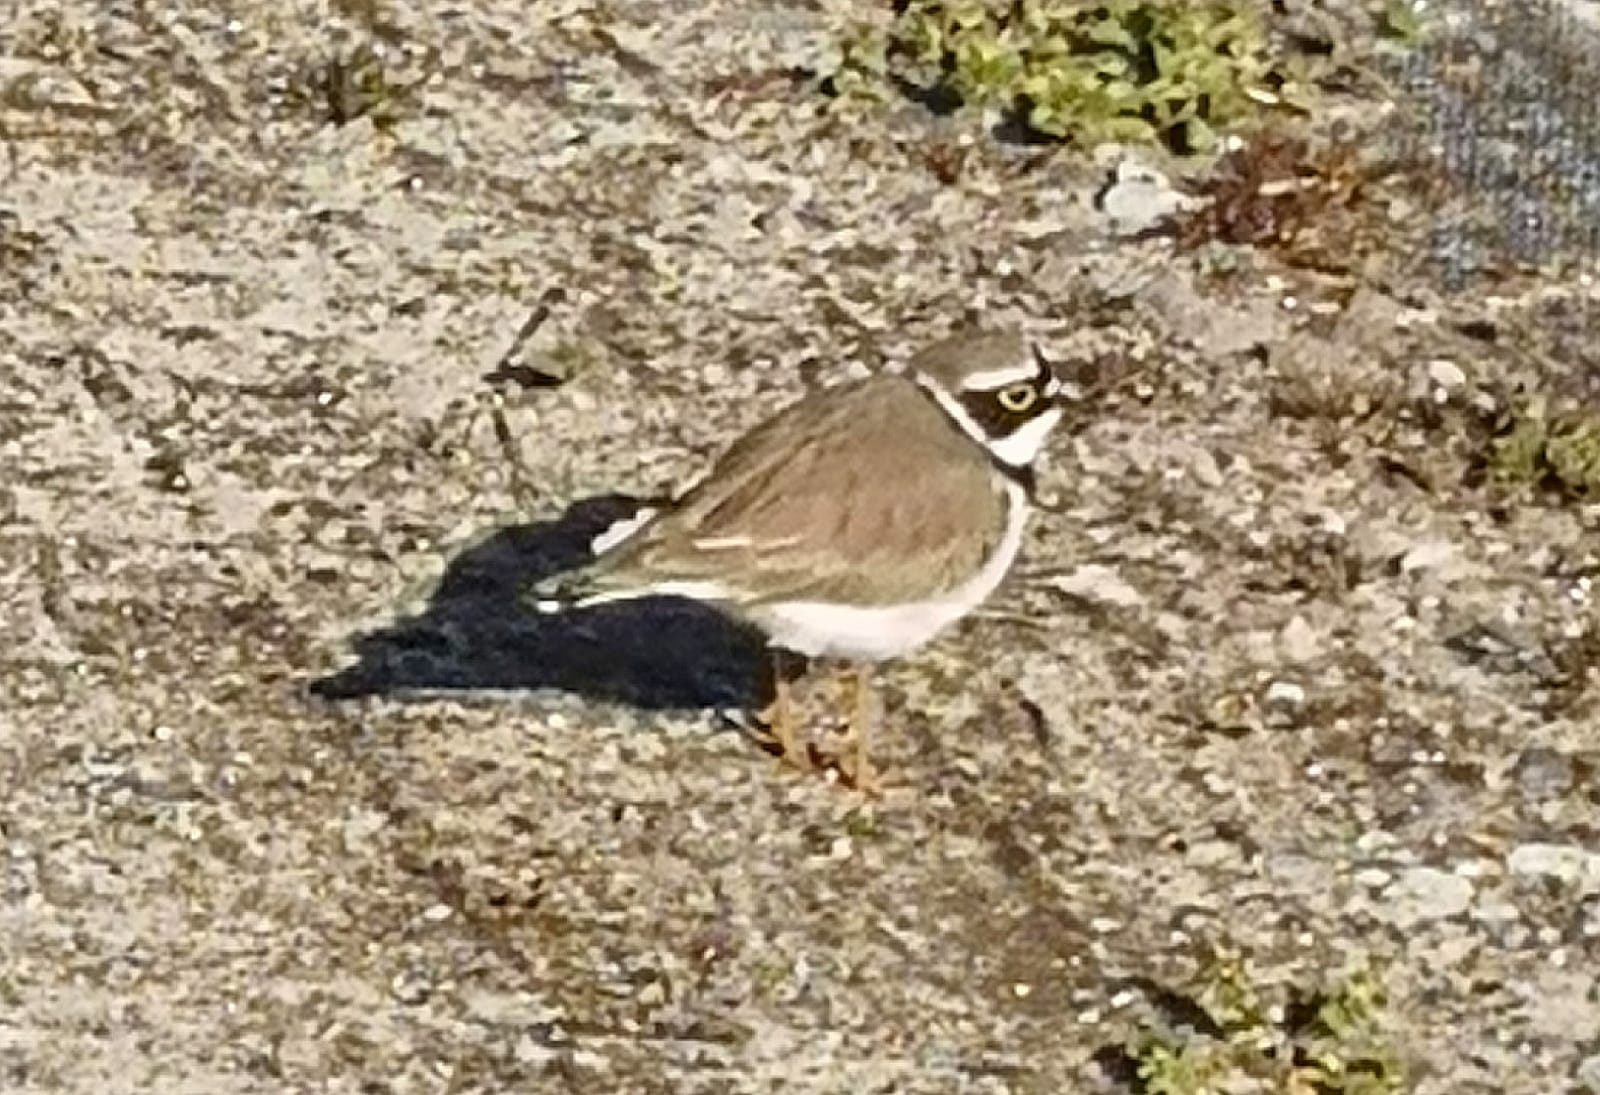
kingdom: Animalia
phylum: Chordata
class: Aves
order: Charadriiformes
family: Charadriidae
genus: Charadrius
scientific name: Charadrius dubius
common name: Little ringed plover
